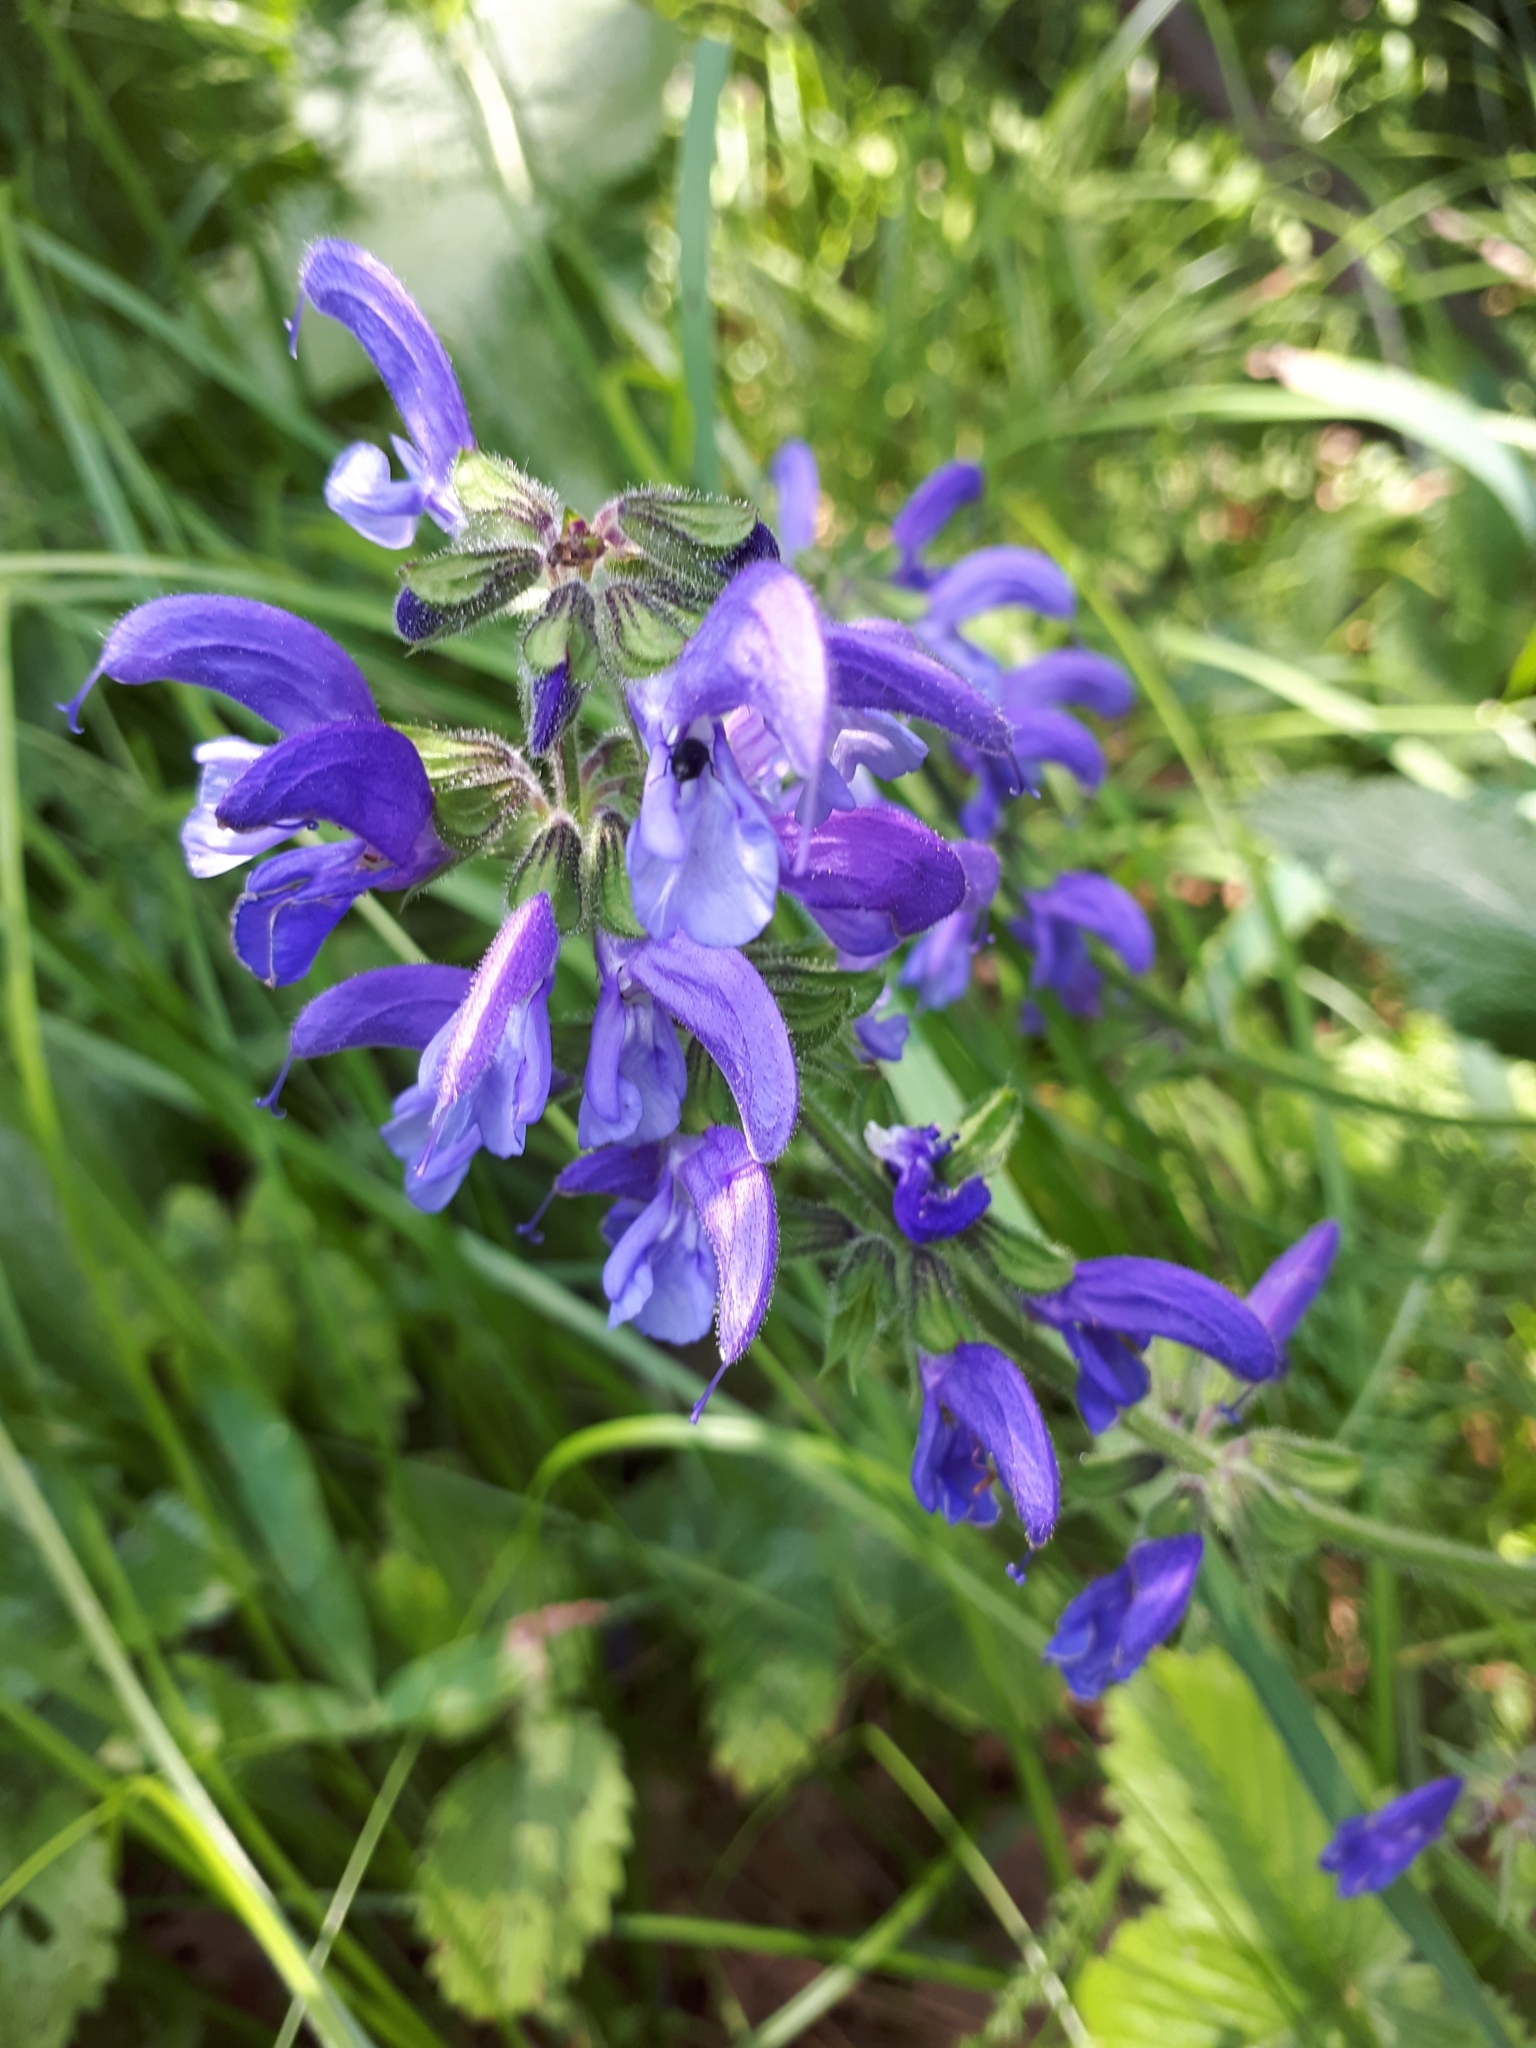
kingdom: Plantae
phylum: Tracheophyta
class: Magnoliopsida
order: Lamiales
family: Lamiaceae
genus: Salvia
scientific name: Salvia pratensis
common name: Meadow sage
